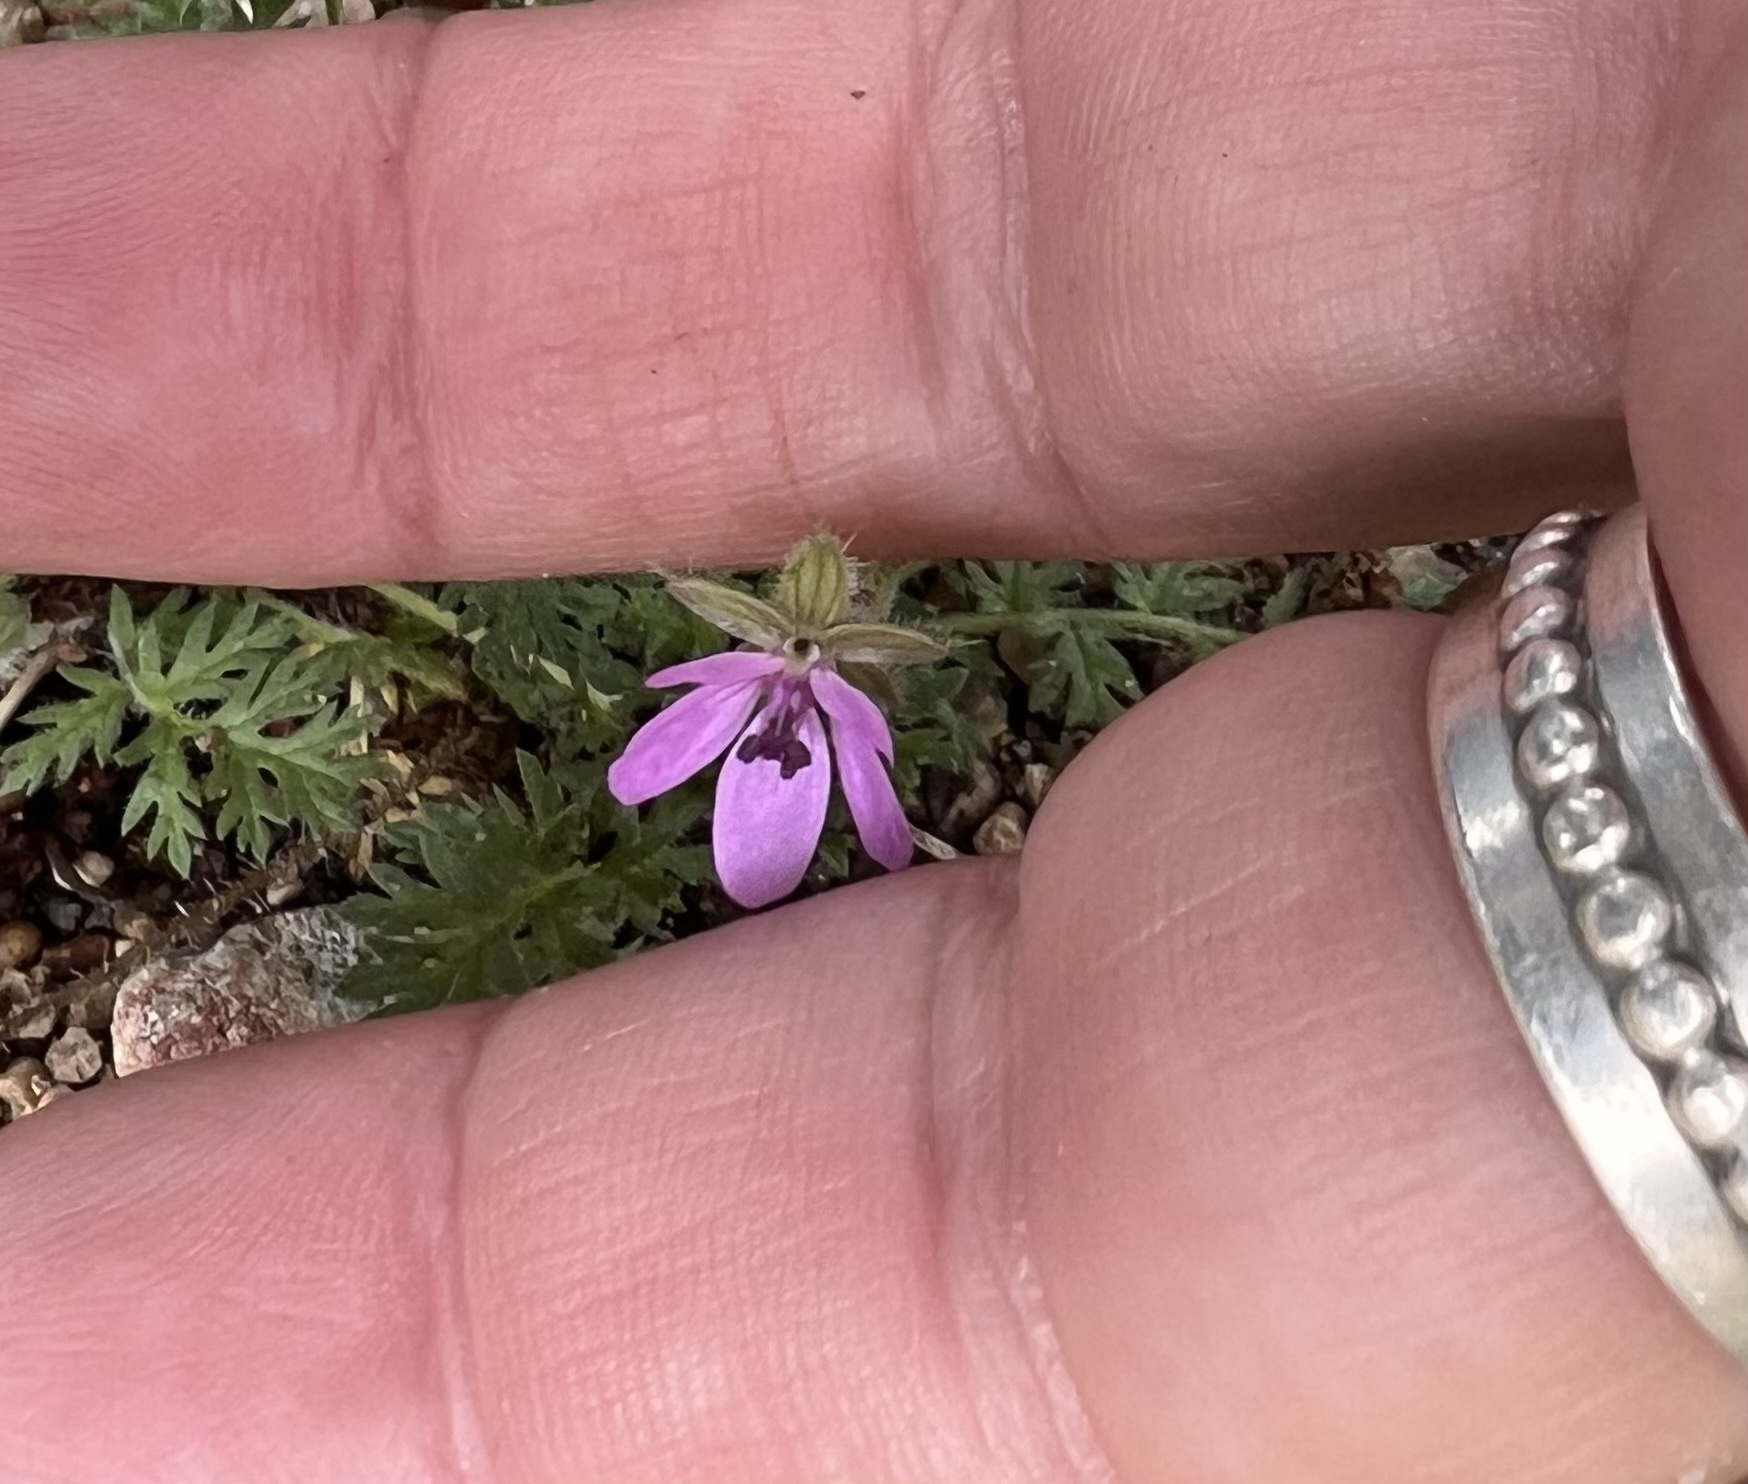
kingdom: Plantae
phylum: Tracheophyta
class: Magnoliopsida
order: Geraniales
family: Geraniaceae
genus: Erodium
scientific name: Erodium cicutarium
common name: Common stork's-bill
